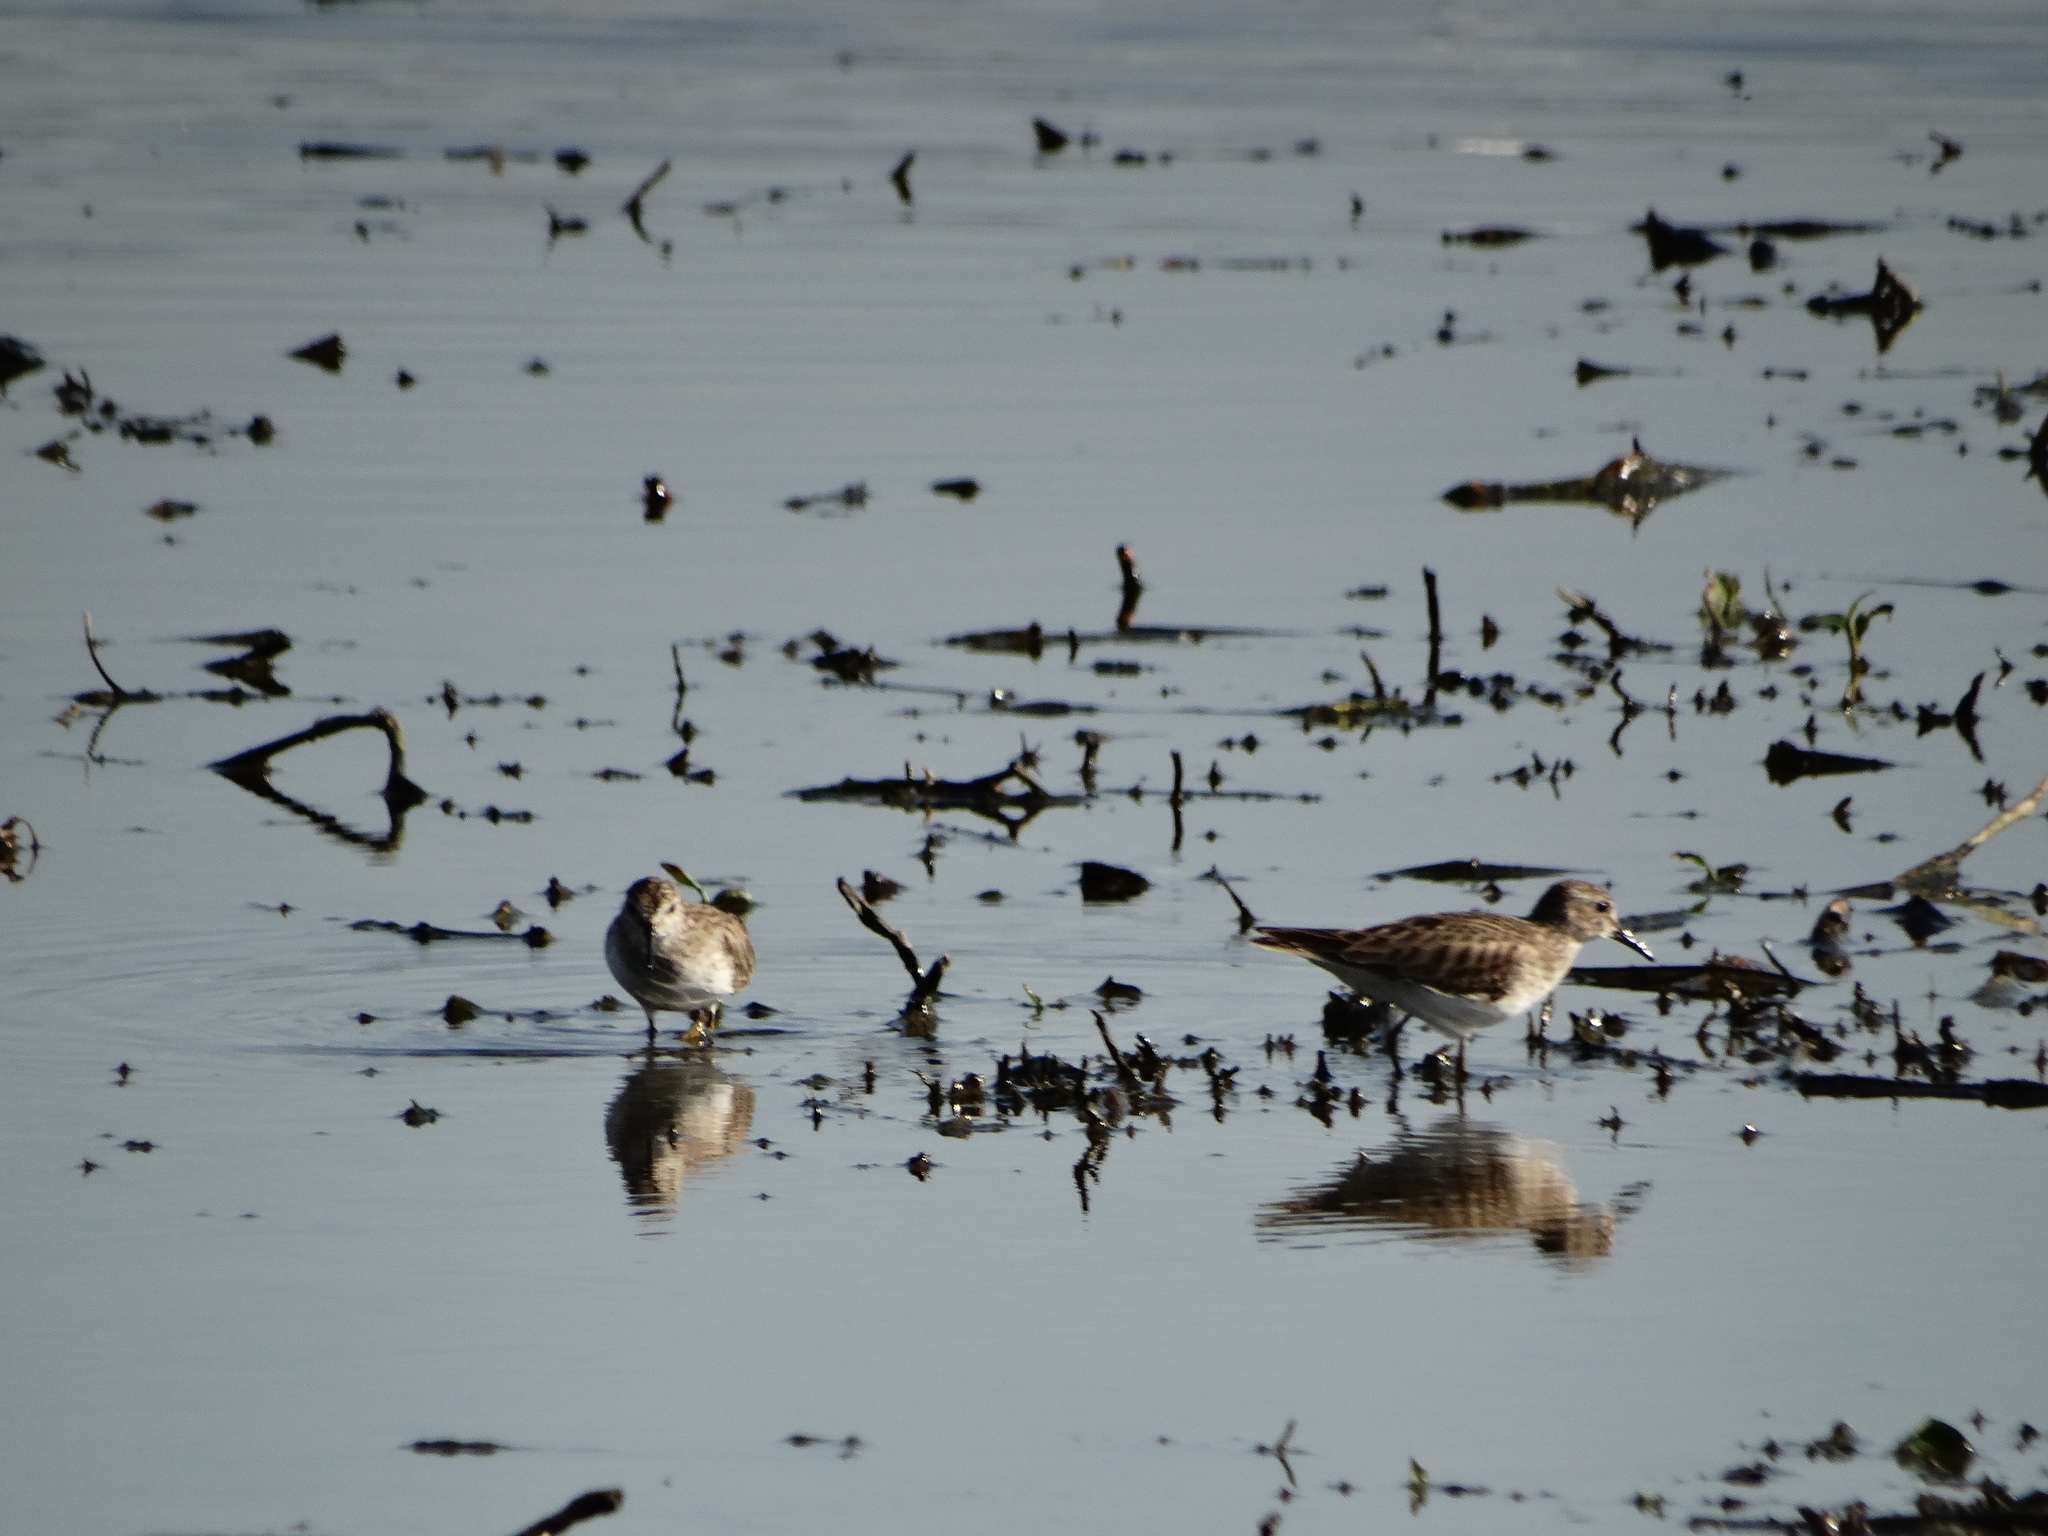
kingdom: Animalia
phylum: Chordata
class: Aves
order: Charadriiformes
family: Scolopacidae
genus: Calidris
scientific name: Calidris minutilla
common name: Least sandpiper
